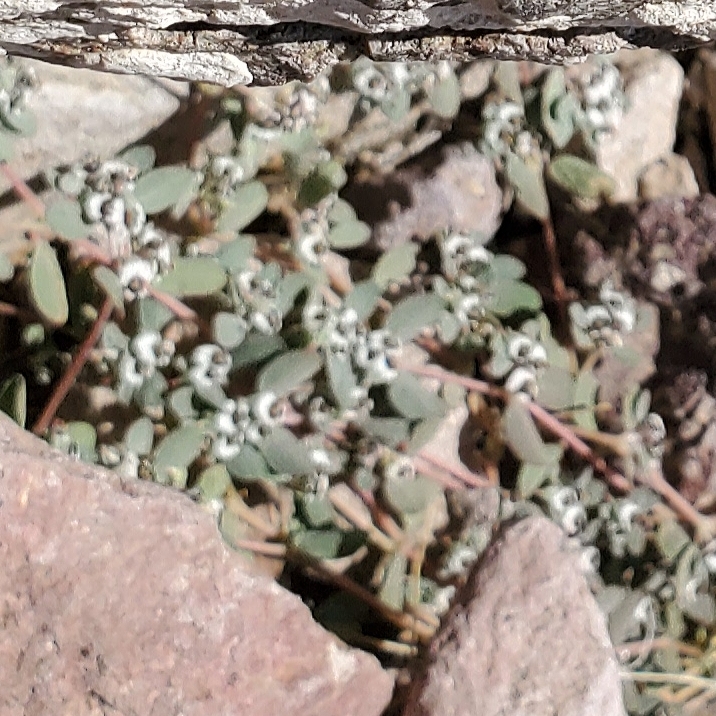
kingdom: Plantae
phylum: Tracheophyta
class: Magnoliopsida
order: Malpighiales
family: Euphorbiaceae
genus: Euphorbia
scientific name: Euphorbia pediculifera
